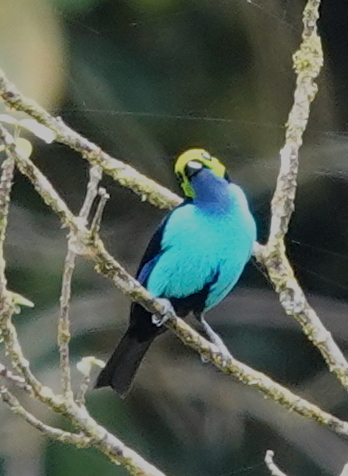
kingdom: Animalia
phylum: Chordata
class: Aves
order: Passeriformes
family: Thraupidae
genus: Tangara
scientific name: Tangara chilensis
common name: Paradise tanager
